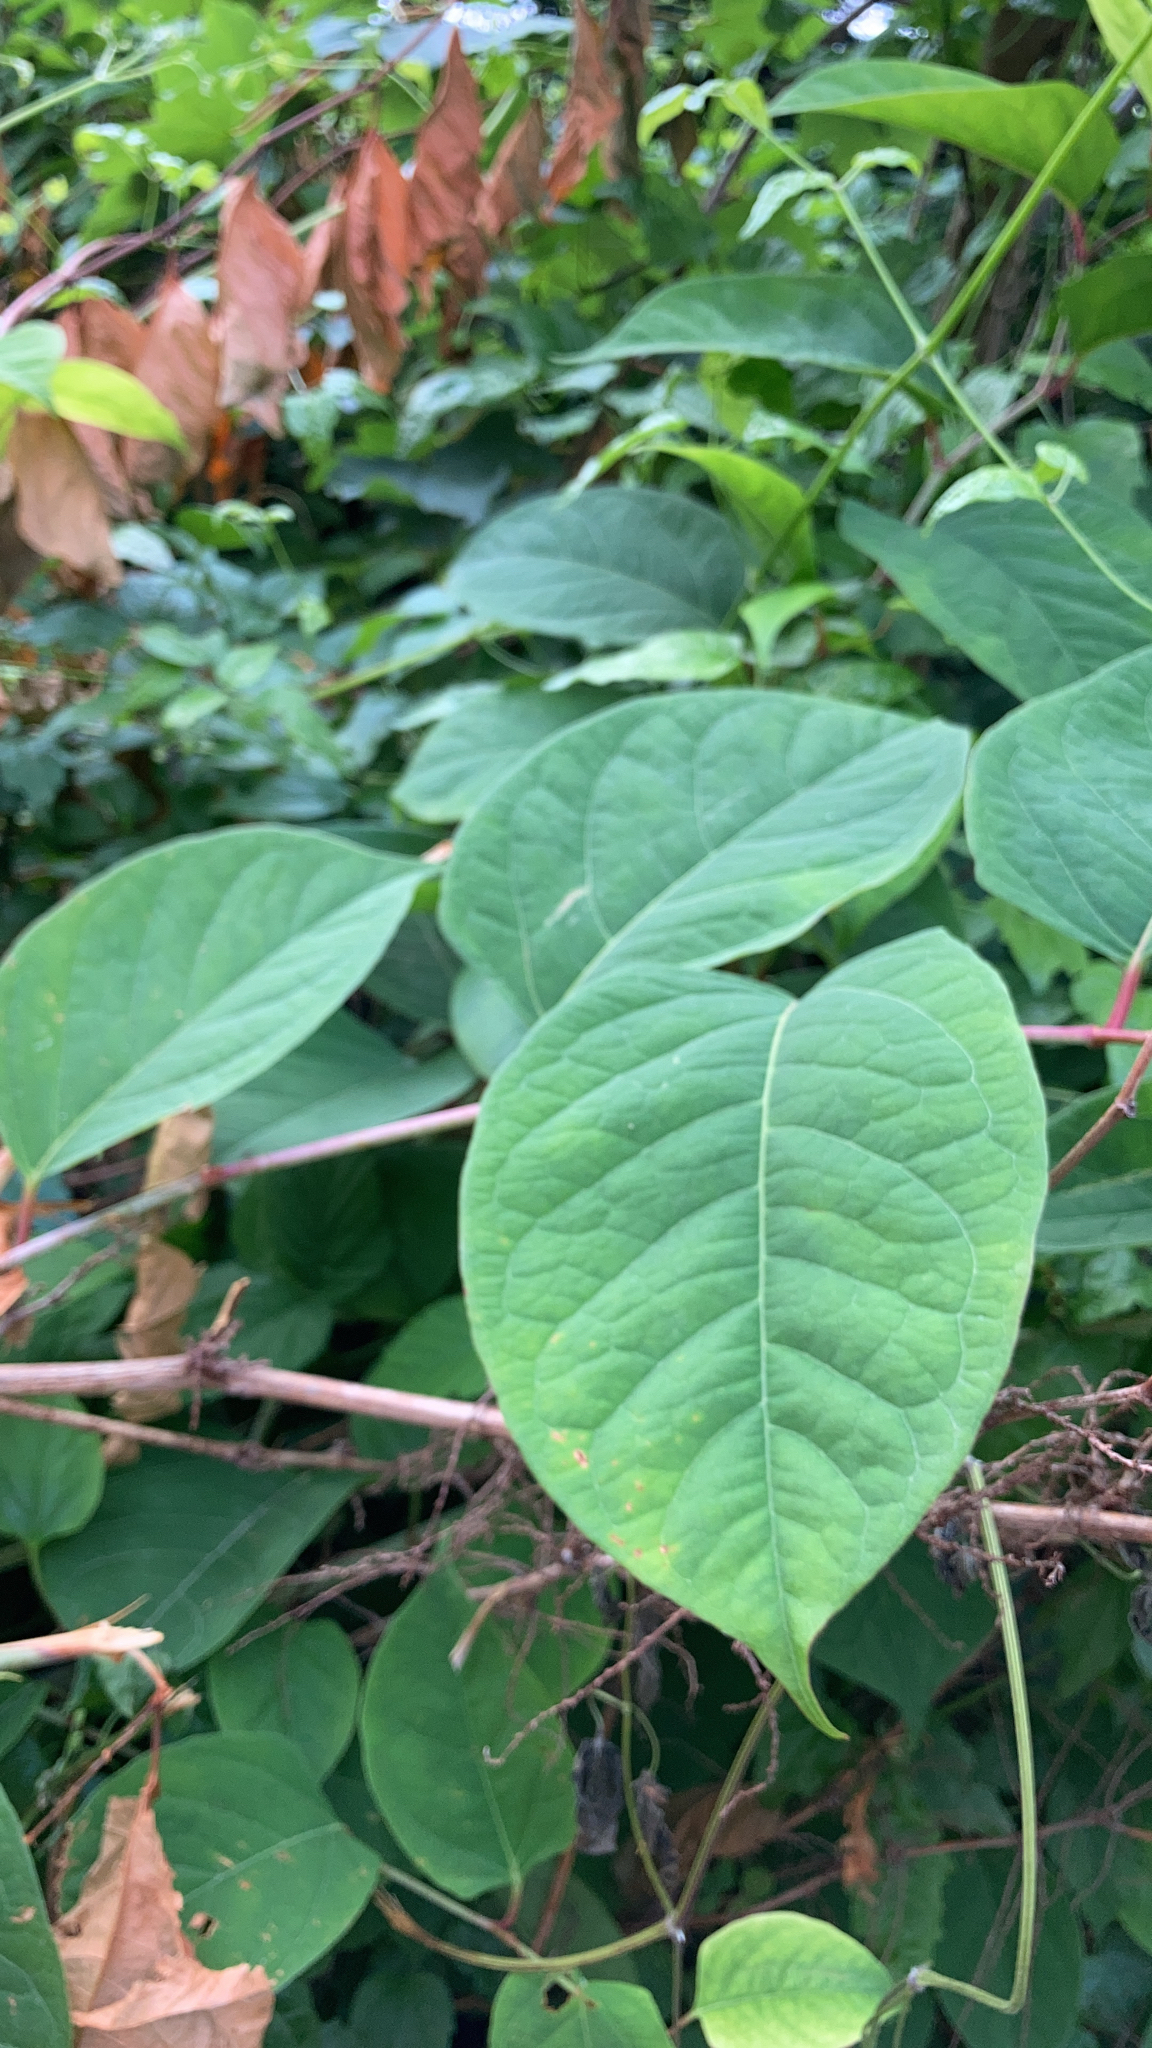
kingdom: Plantae
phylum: Tracheophyta
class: Magnoliopsida
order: Caryophyllales
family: Polygonaceae
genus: Reynoutria
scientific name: Reynoutria japonica
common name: Japanese knotweed
